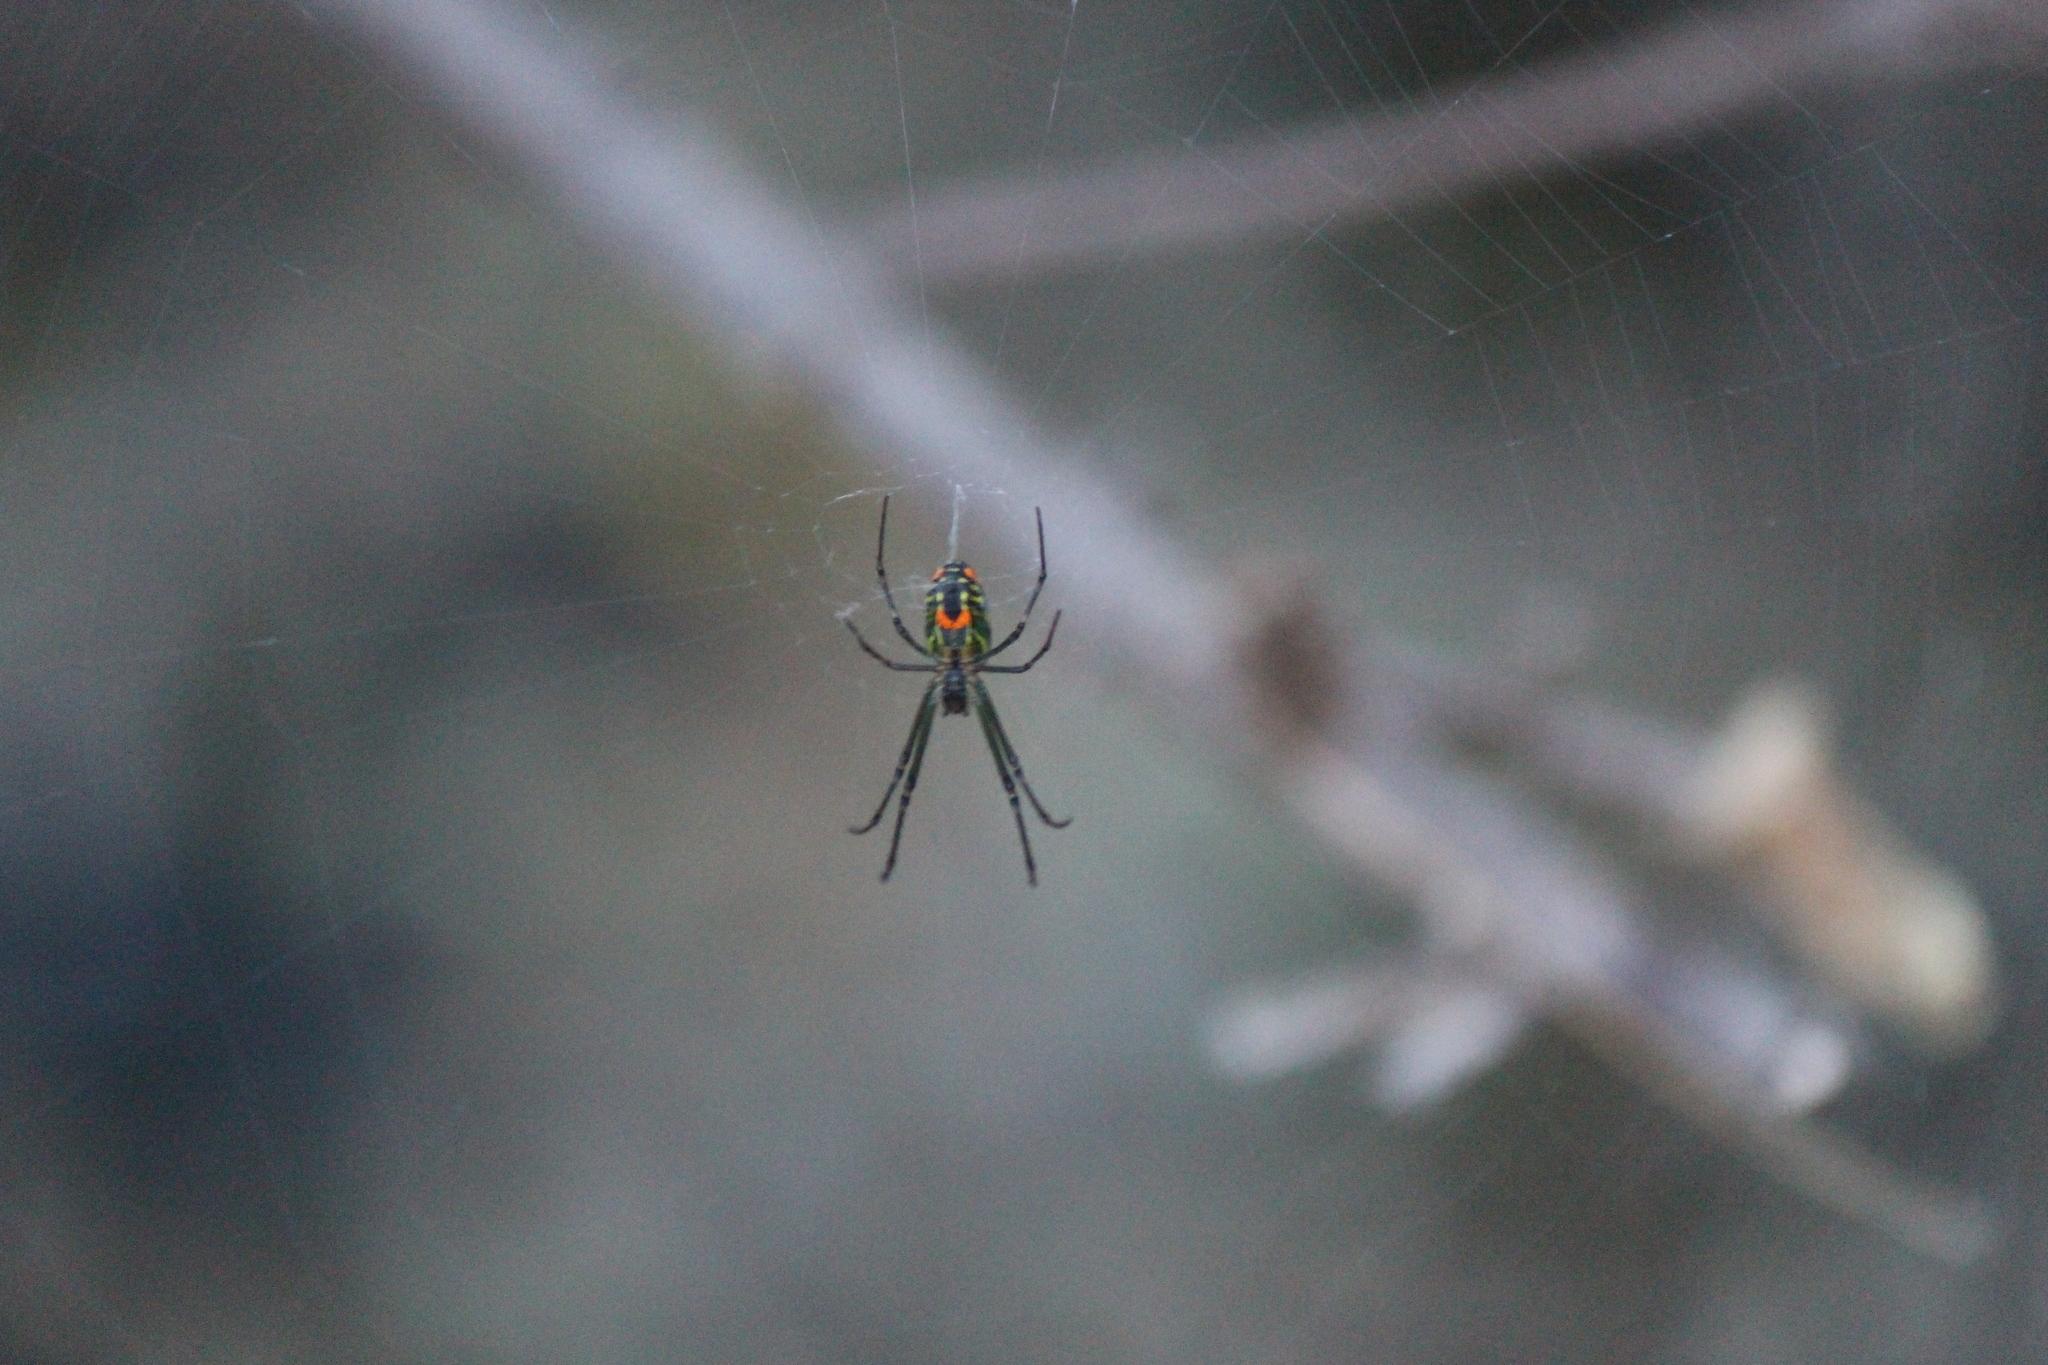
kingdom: Animalia
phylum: Arthropoda
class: Arachnida
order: Araneae
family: Tetragnathidae
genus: Leucauge
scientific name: Leucauge mariana
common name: Longjawed orb weavers
